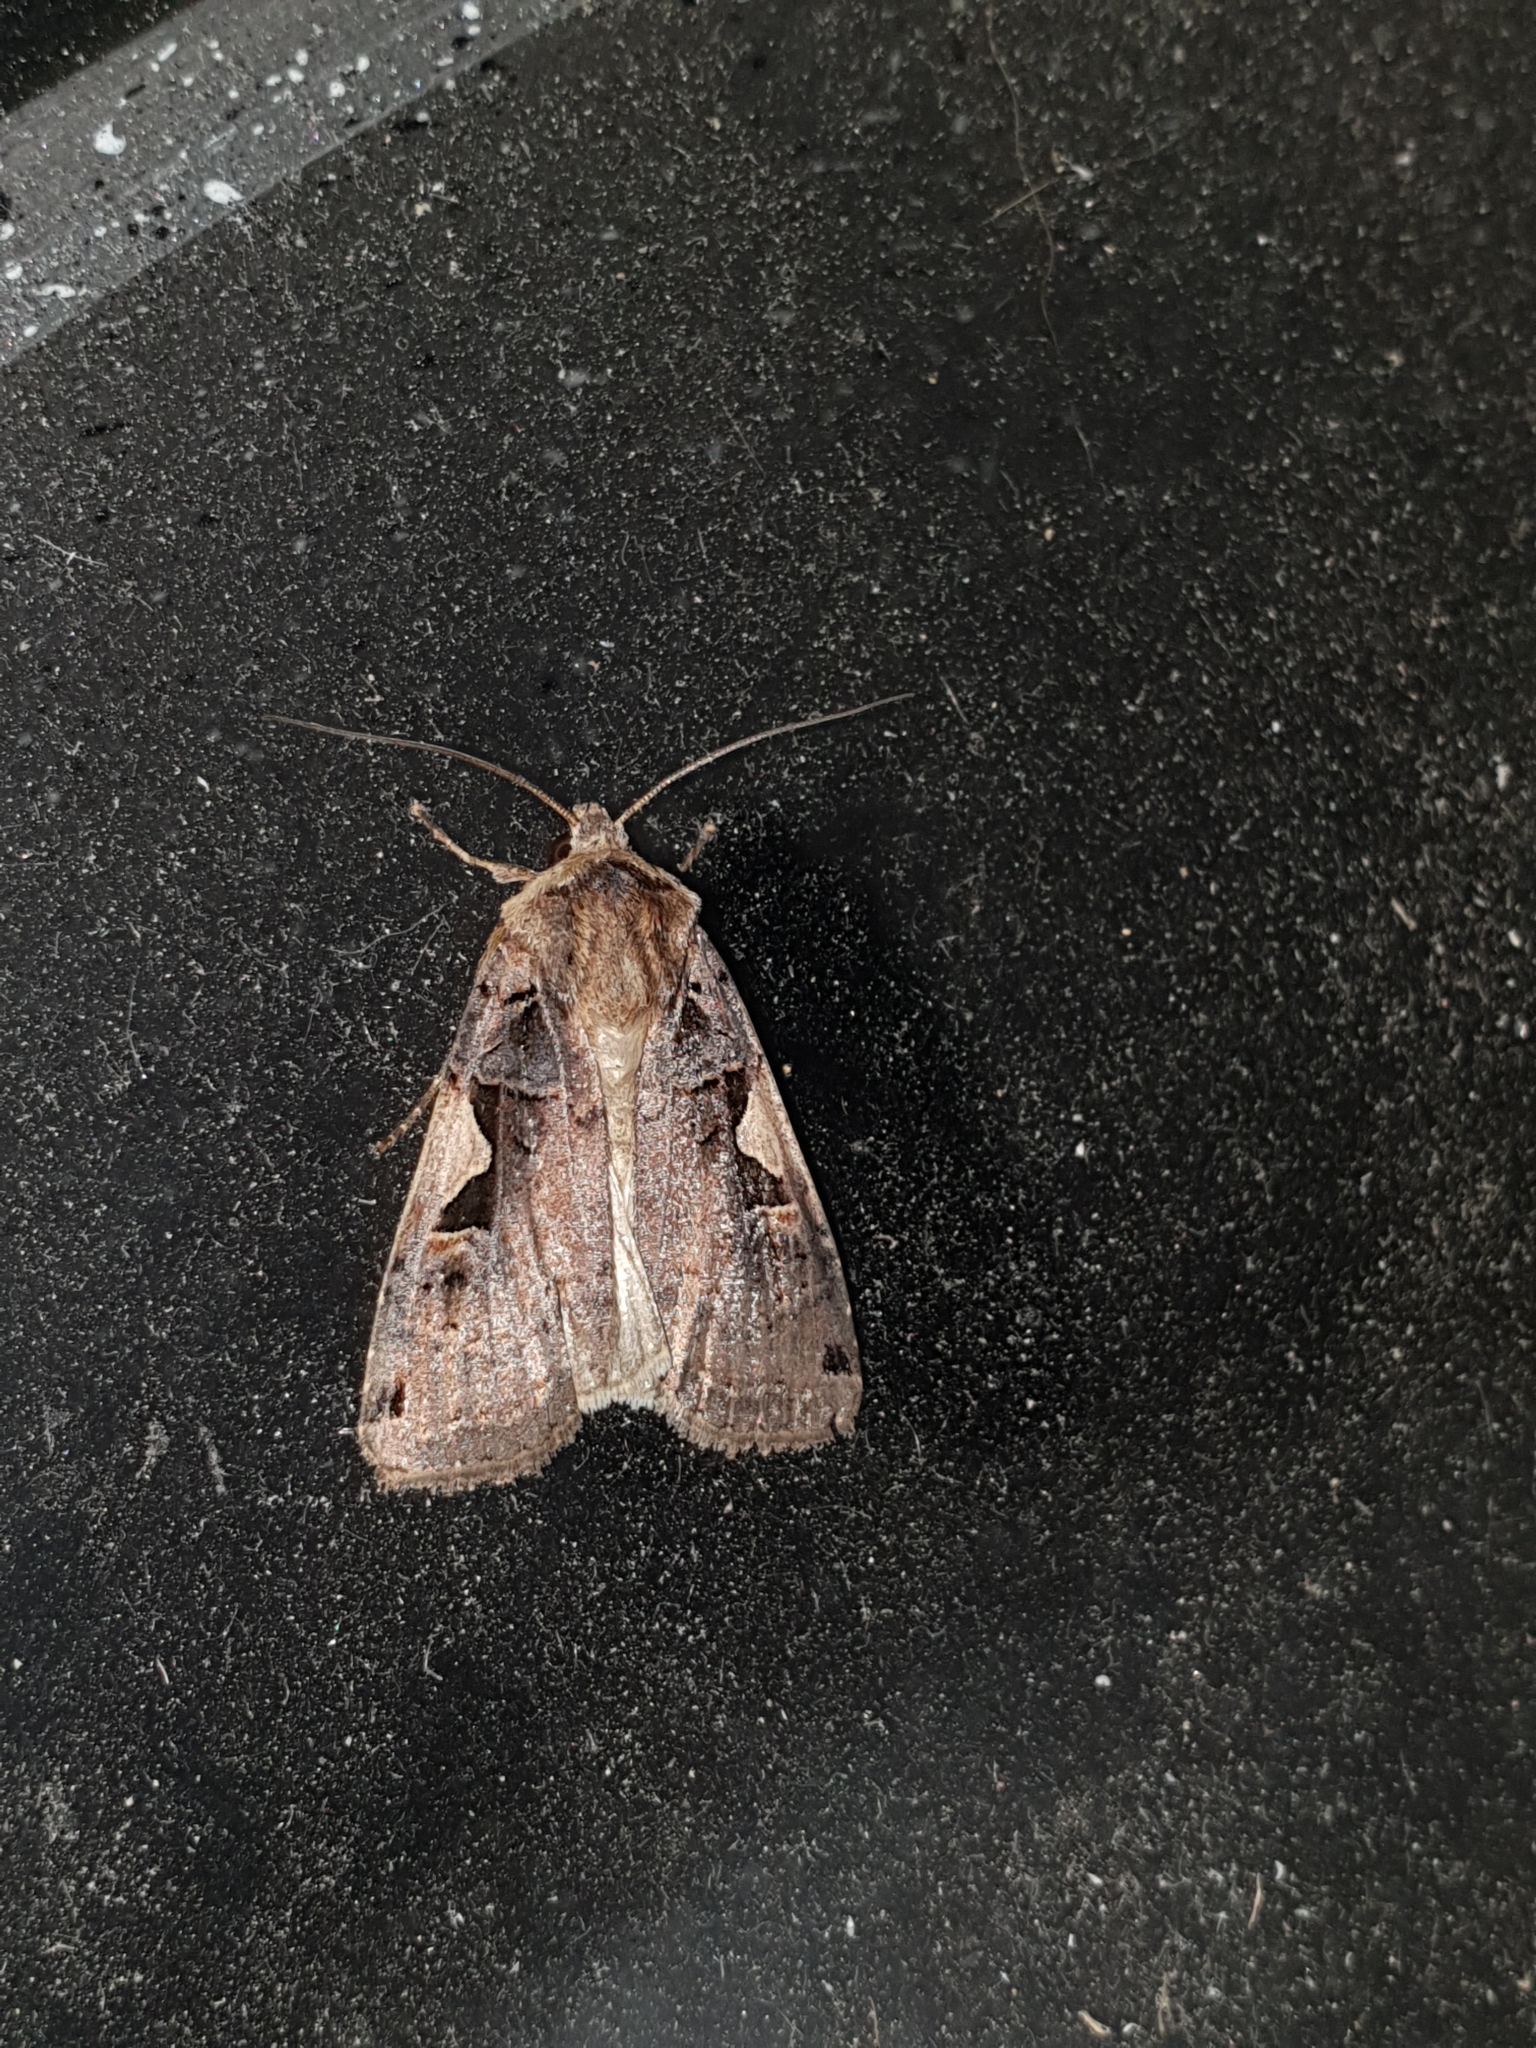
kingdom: Animalia
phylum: Arthropoda
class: Insecta
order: Lepidoptera
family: Noctuidae
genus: Xestia
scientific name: Xestia c-nigrum
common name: Setaceous hebrew character
